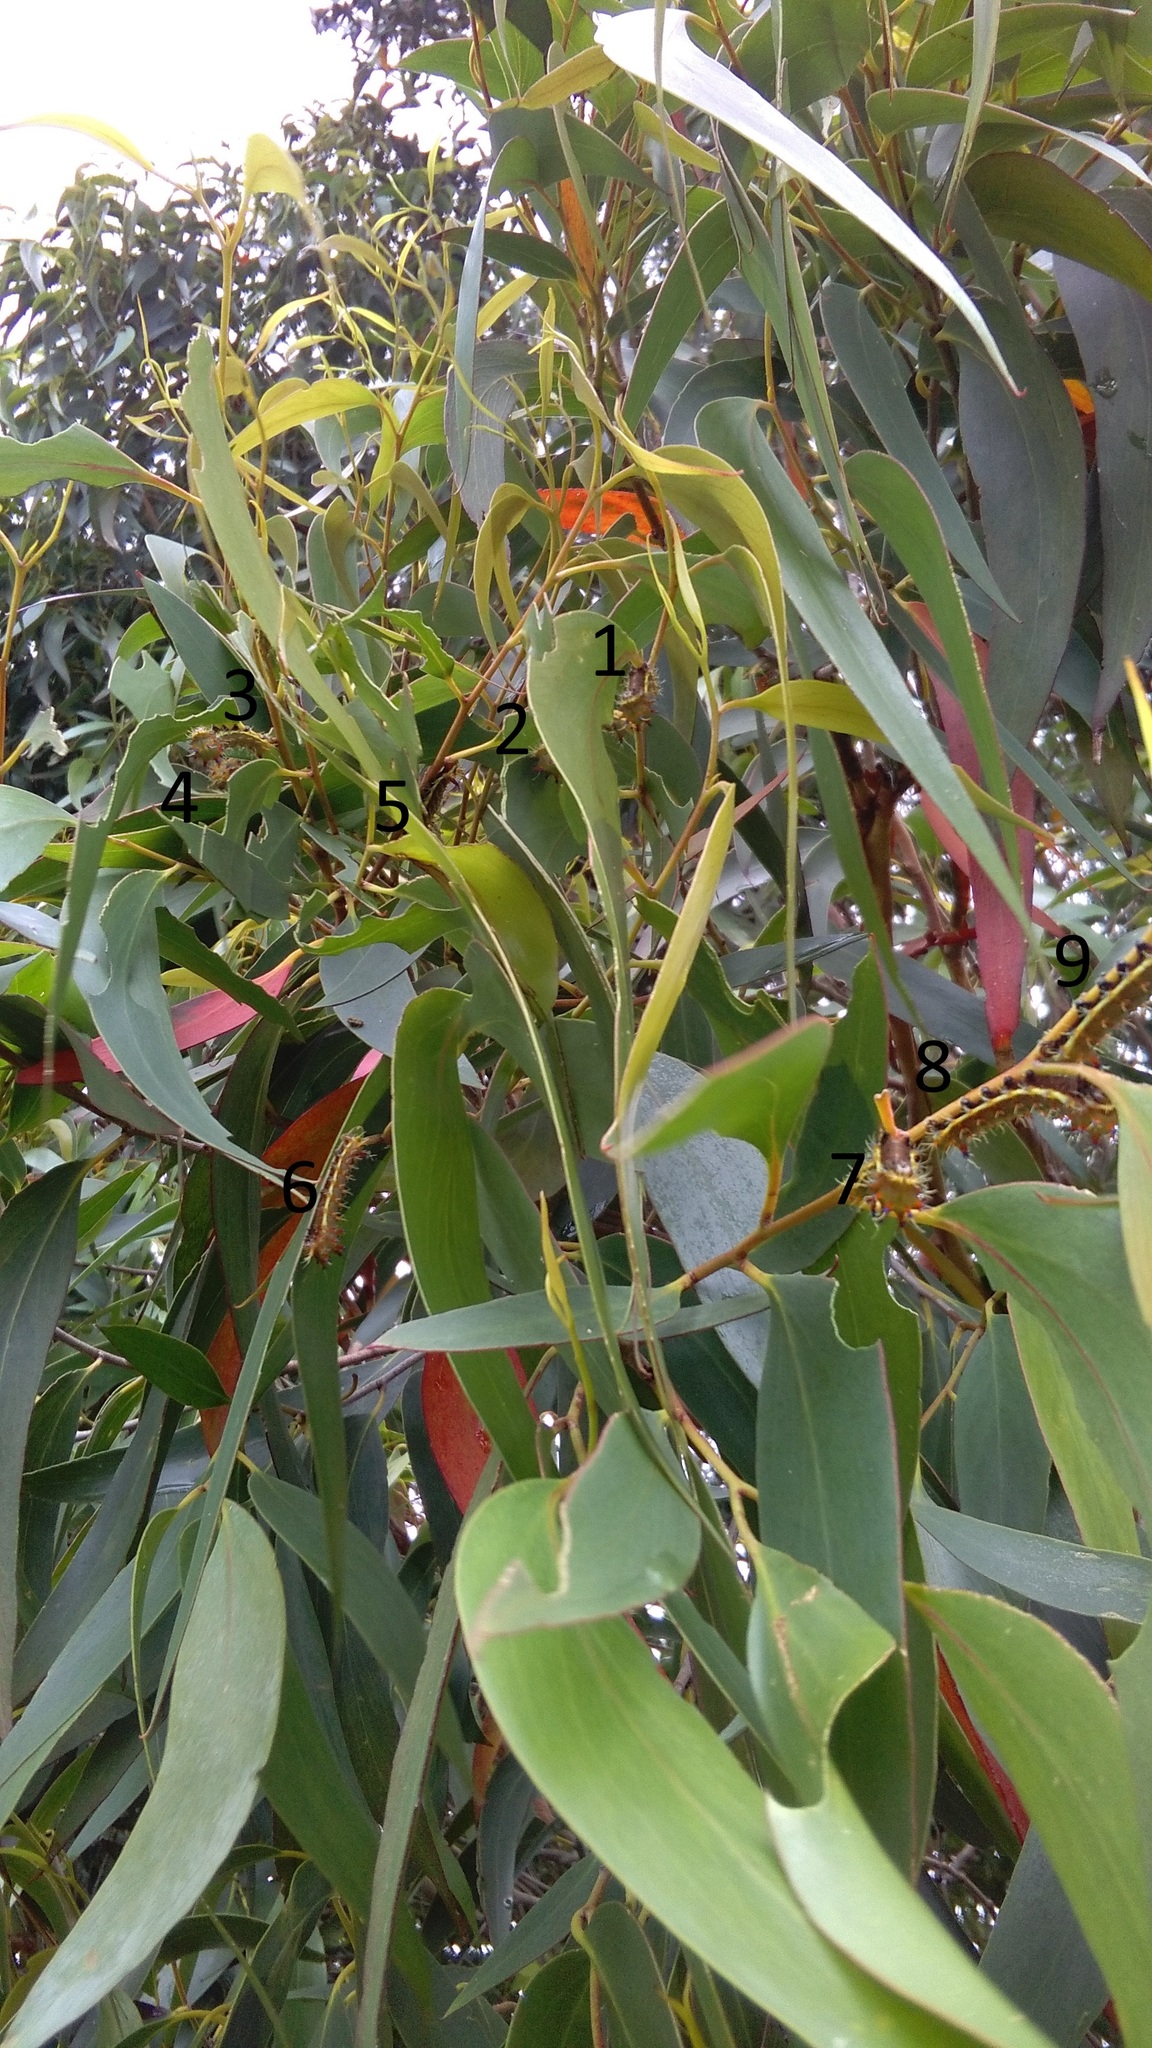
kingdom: Animalia
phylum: Arthropoda
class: Insecta
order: Lepidoptera
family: Saturniidae
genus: Opodiphthera
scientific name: Opodiphthera
